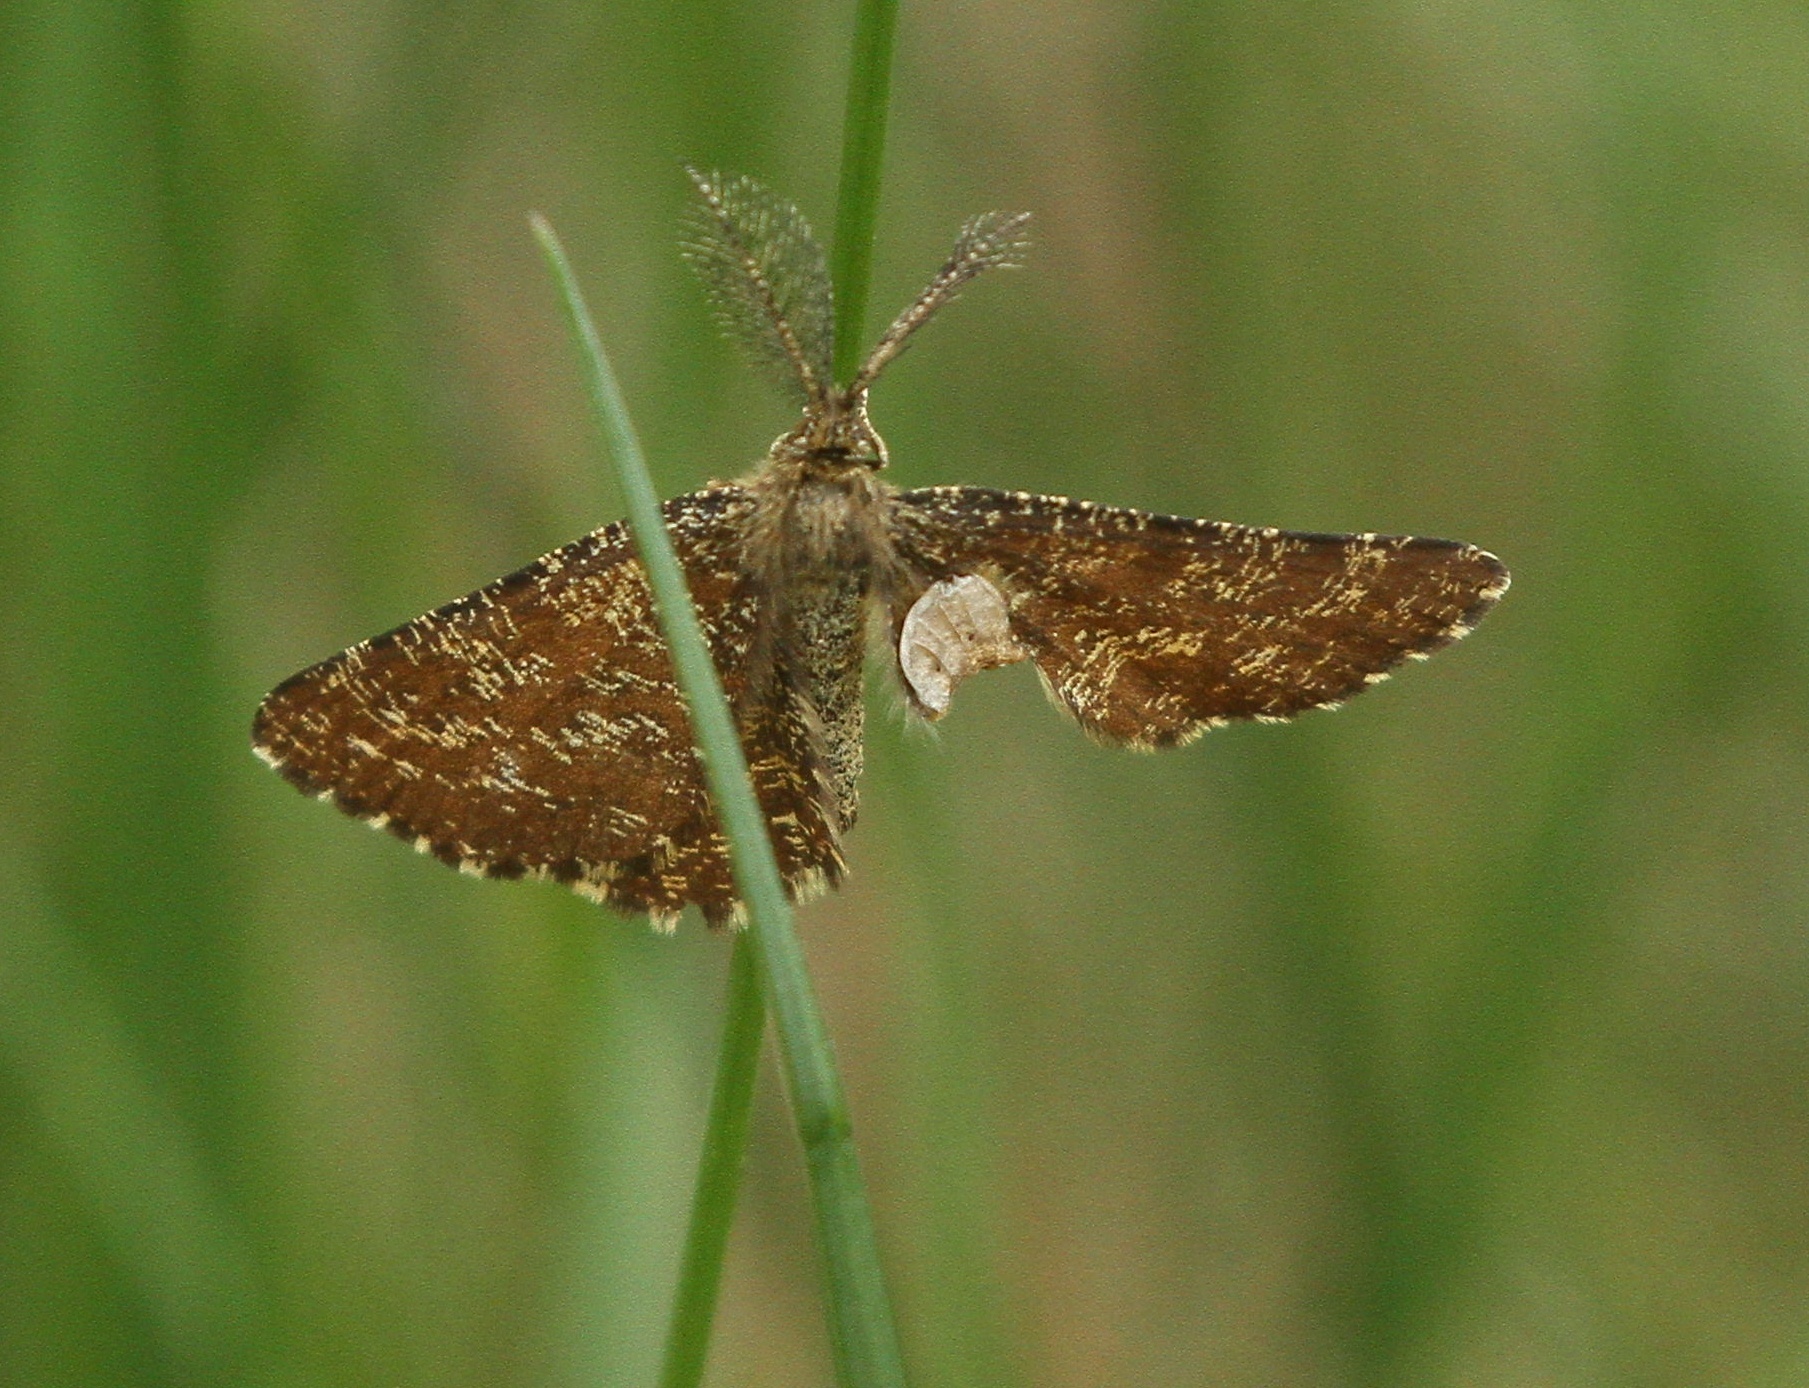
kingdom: Animalia
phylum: Arthropoda
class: Insecta
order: Lepidoptera
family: Geometridae
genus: Ematurga
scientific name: Ematurga atomaria
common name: Common heath
